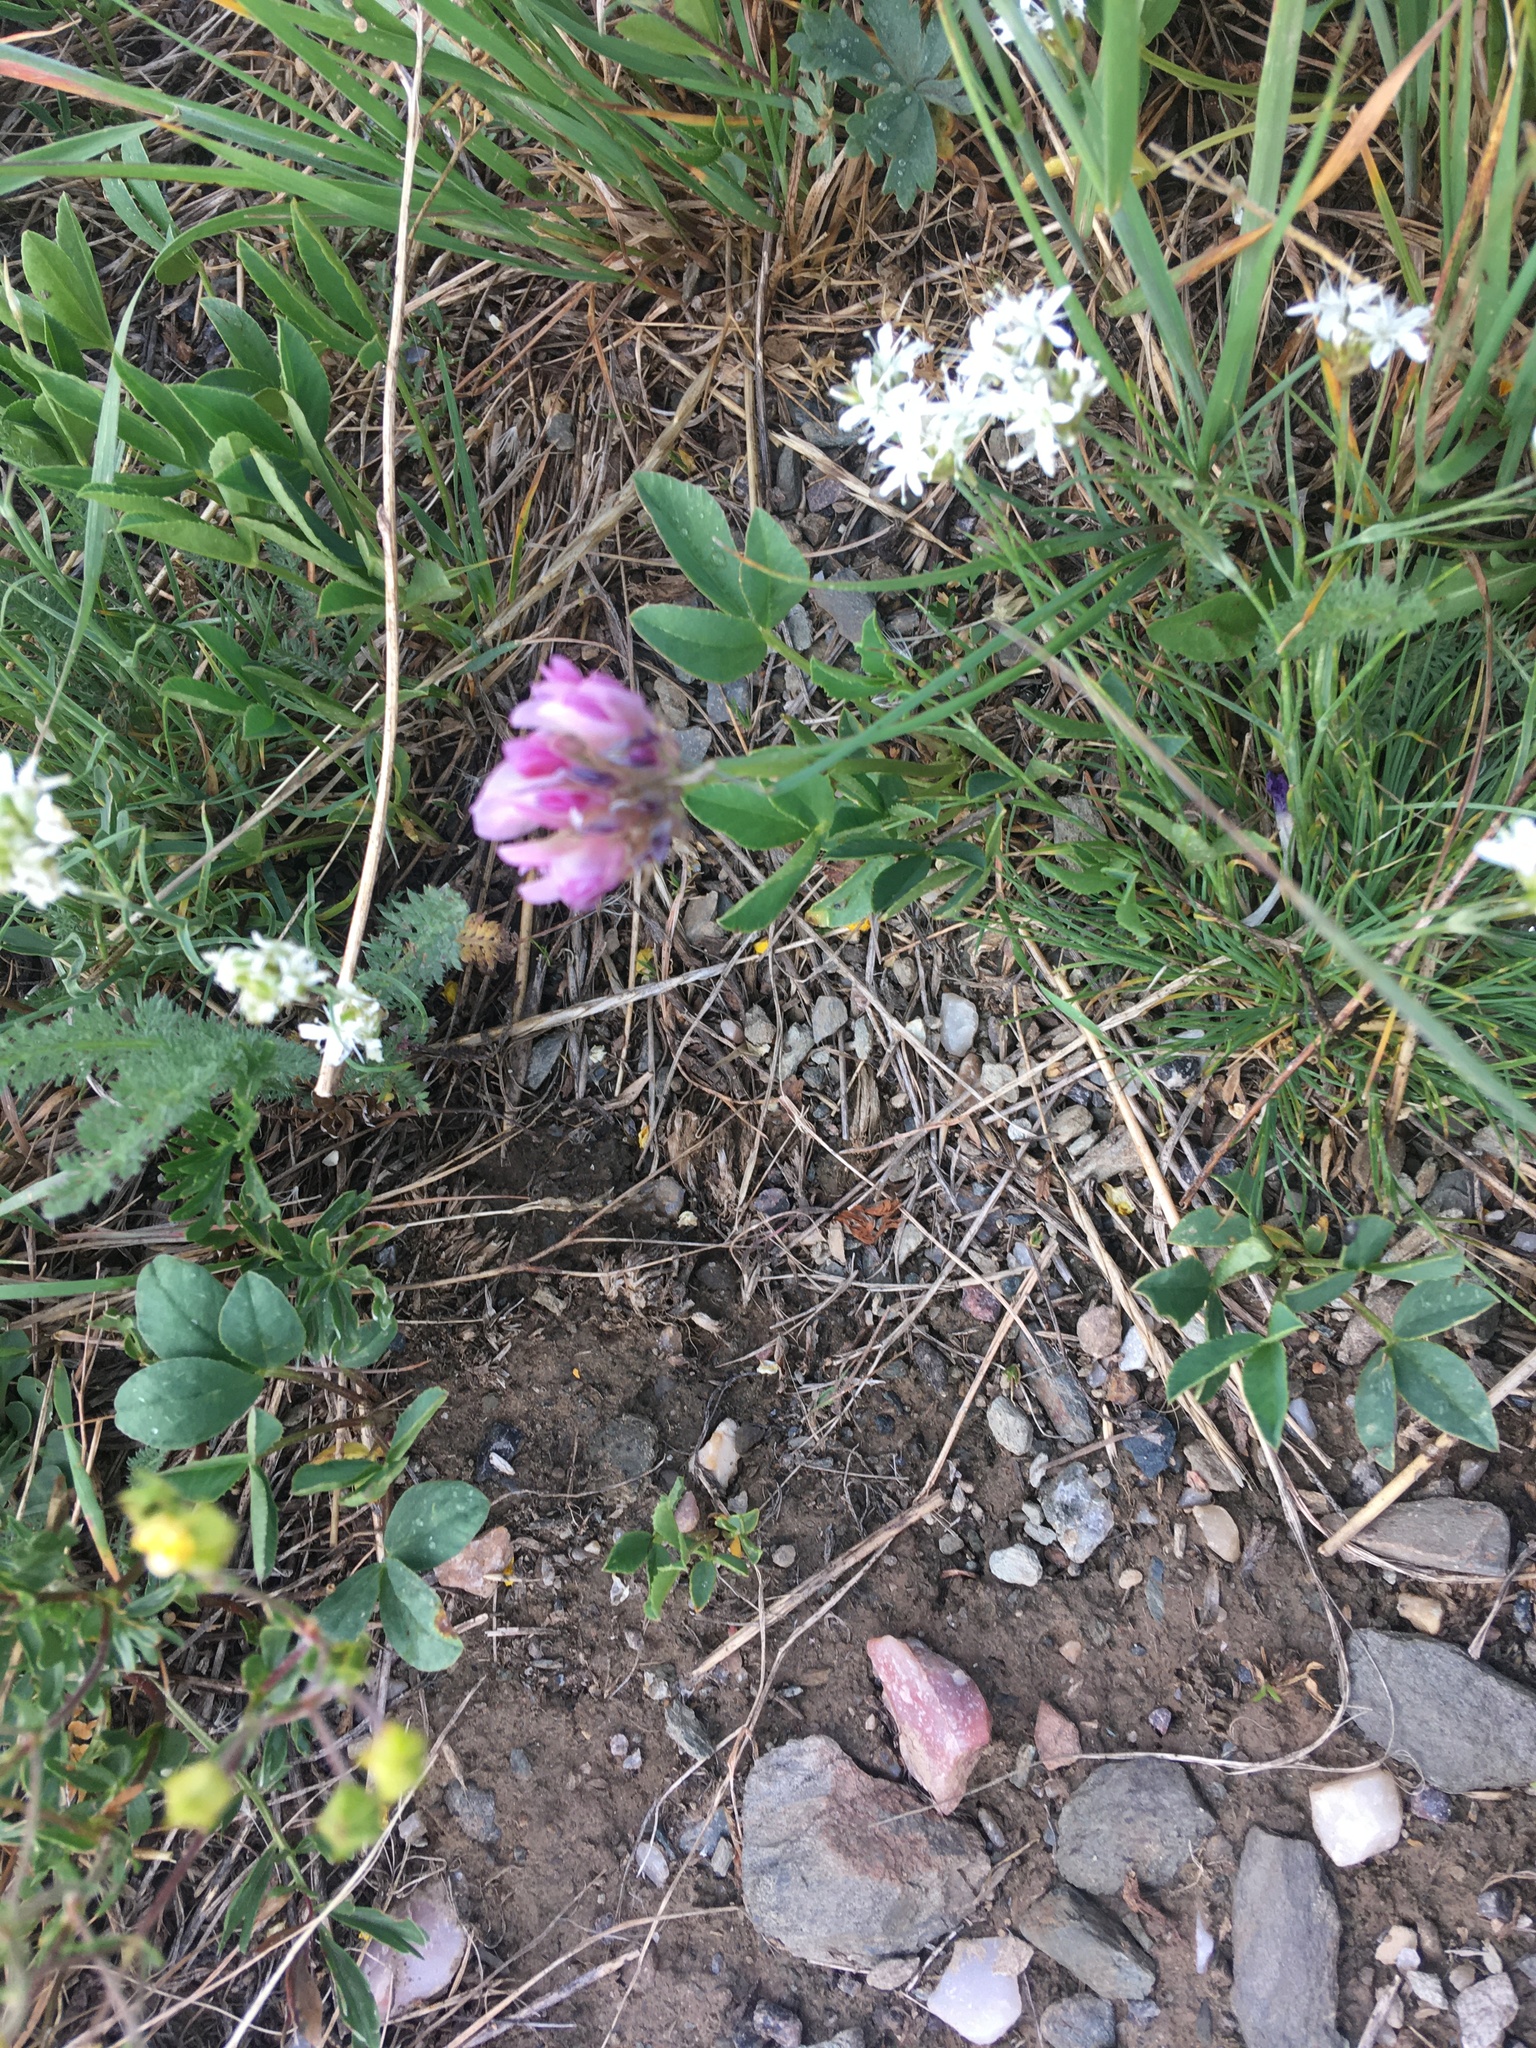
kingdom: Plantae
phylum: Tracheophyta
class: Magnoliopsida
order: Fabales
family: Fabaceae
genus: Trifolium
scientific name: Trifolium parryi
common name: Parry's clover
